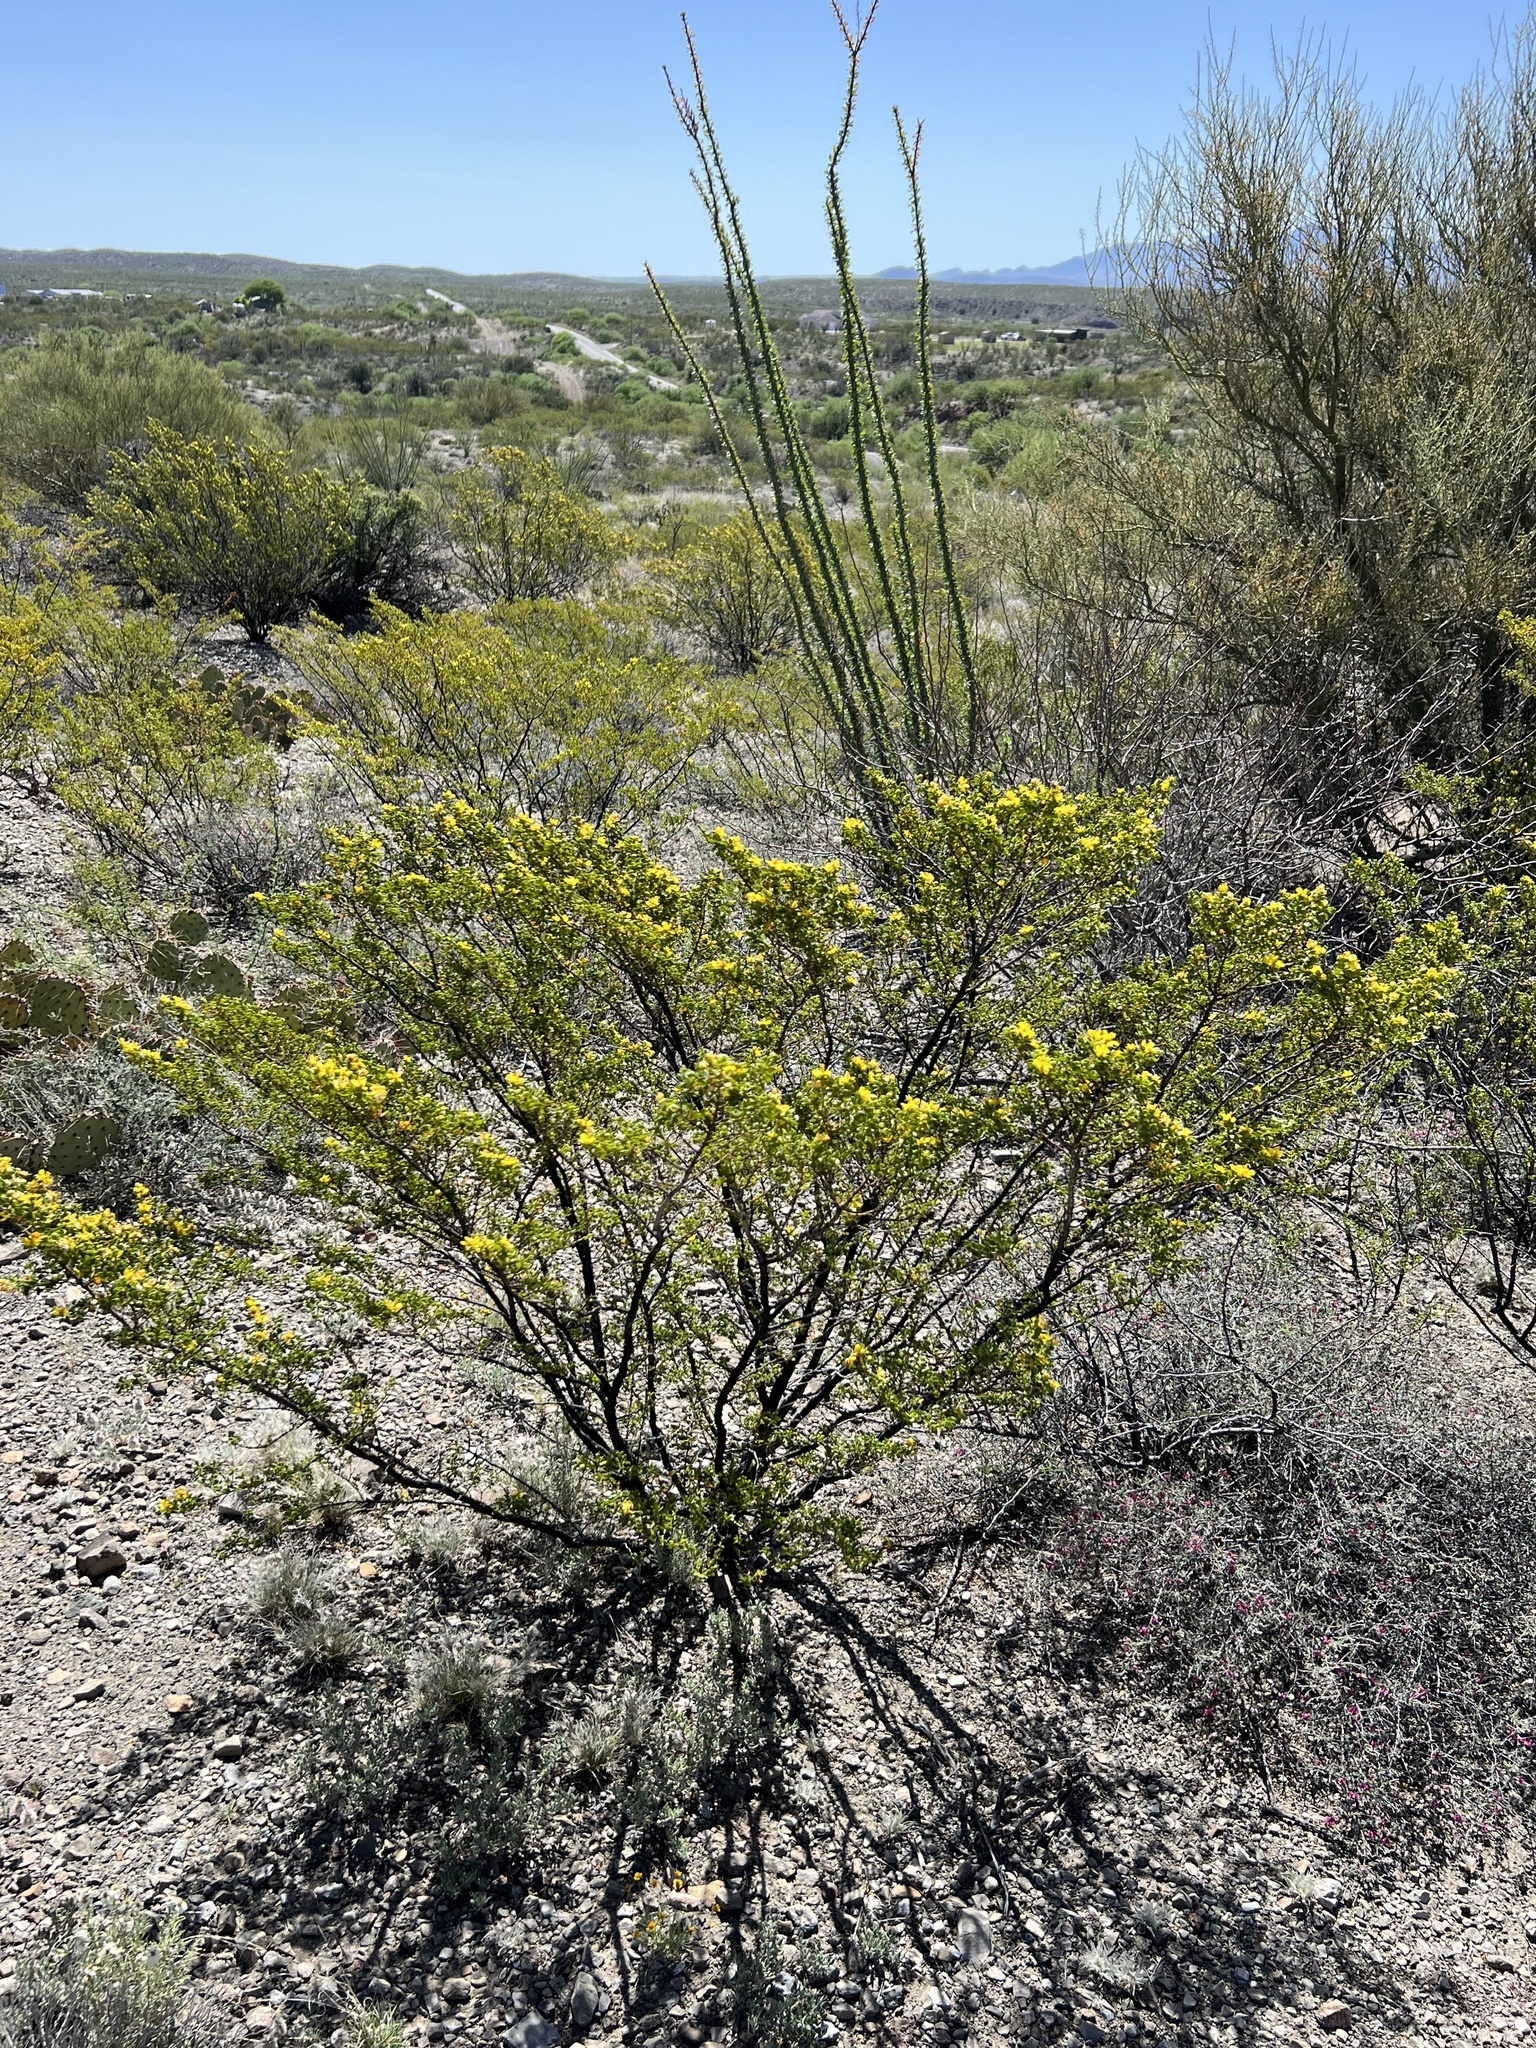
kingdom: Plantae
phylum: Tracheophyta
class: Magnoliopsida
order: Zygophyllales
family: Zygophyllaceae
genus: Larrea
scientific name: Larrea tridentata
